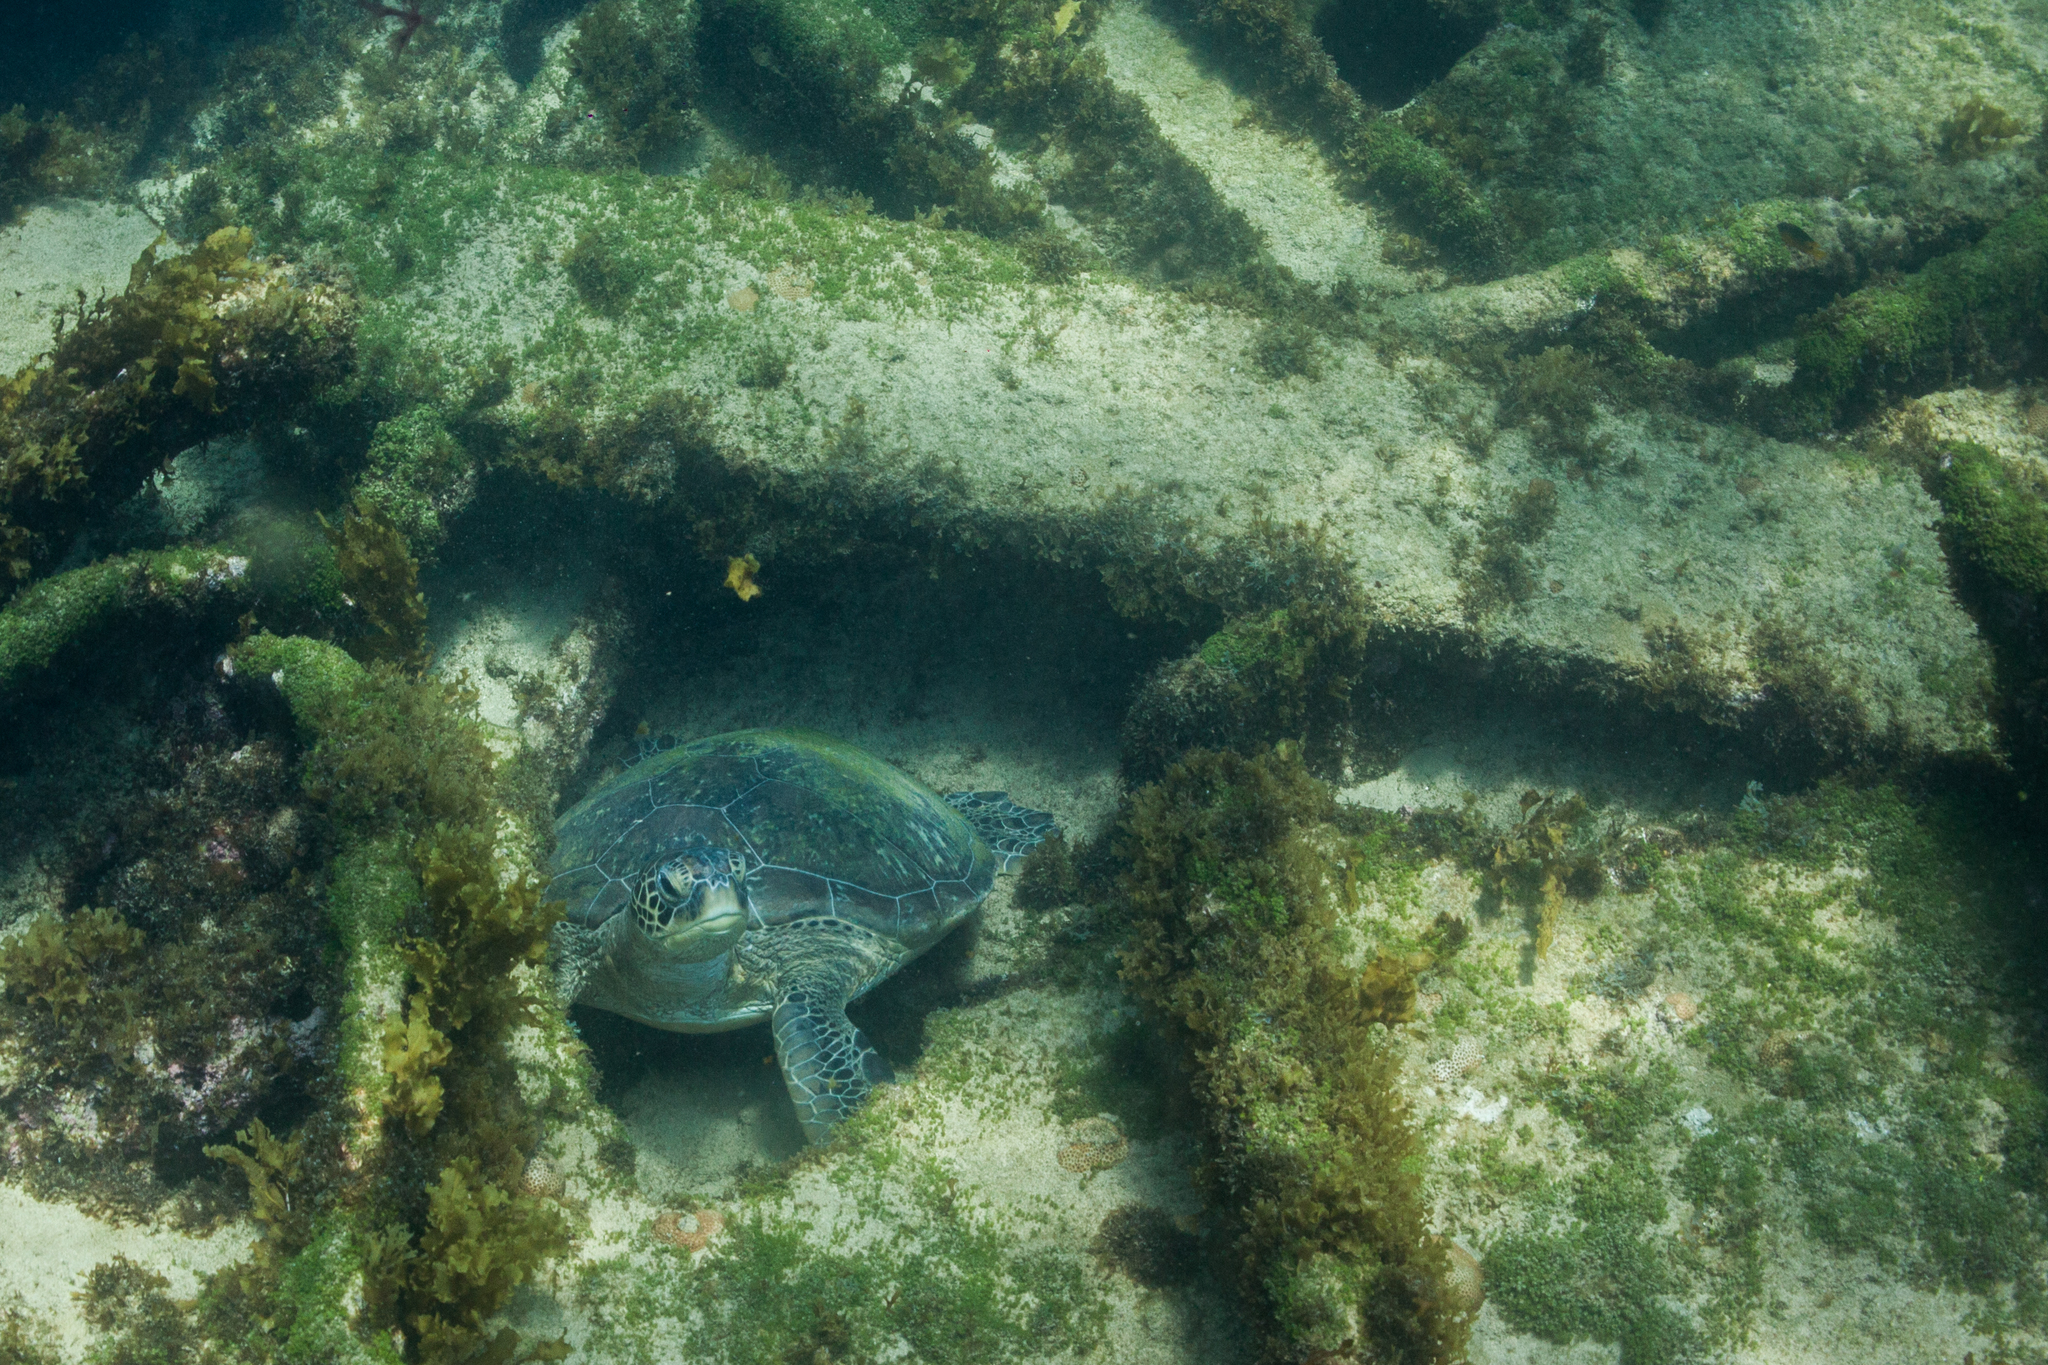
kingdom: Animalia
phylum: Chordata
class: Testudines
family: Cheloniidae
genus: Chelonia
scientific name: Chelonia mydas
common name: Green turtle
